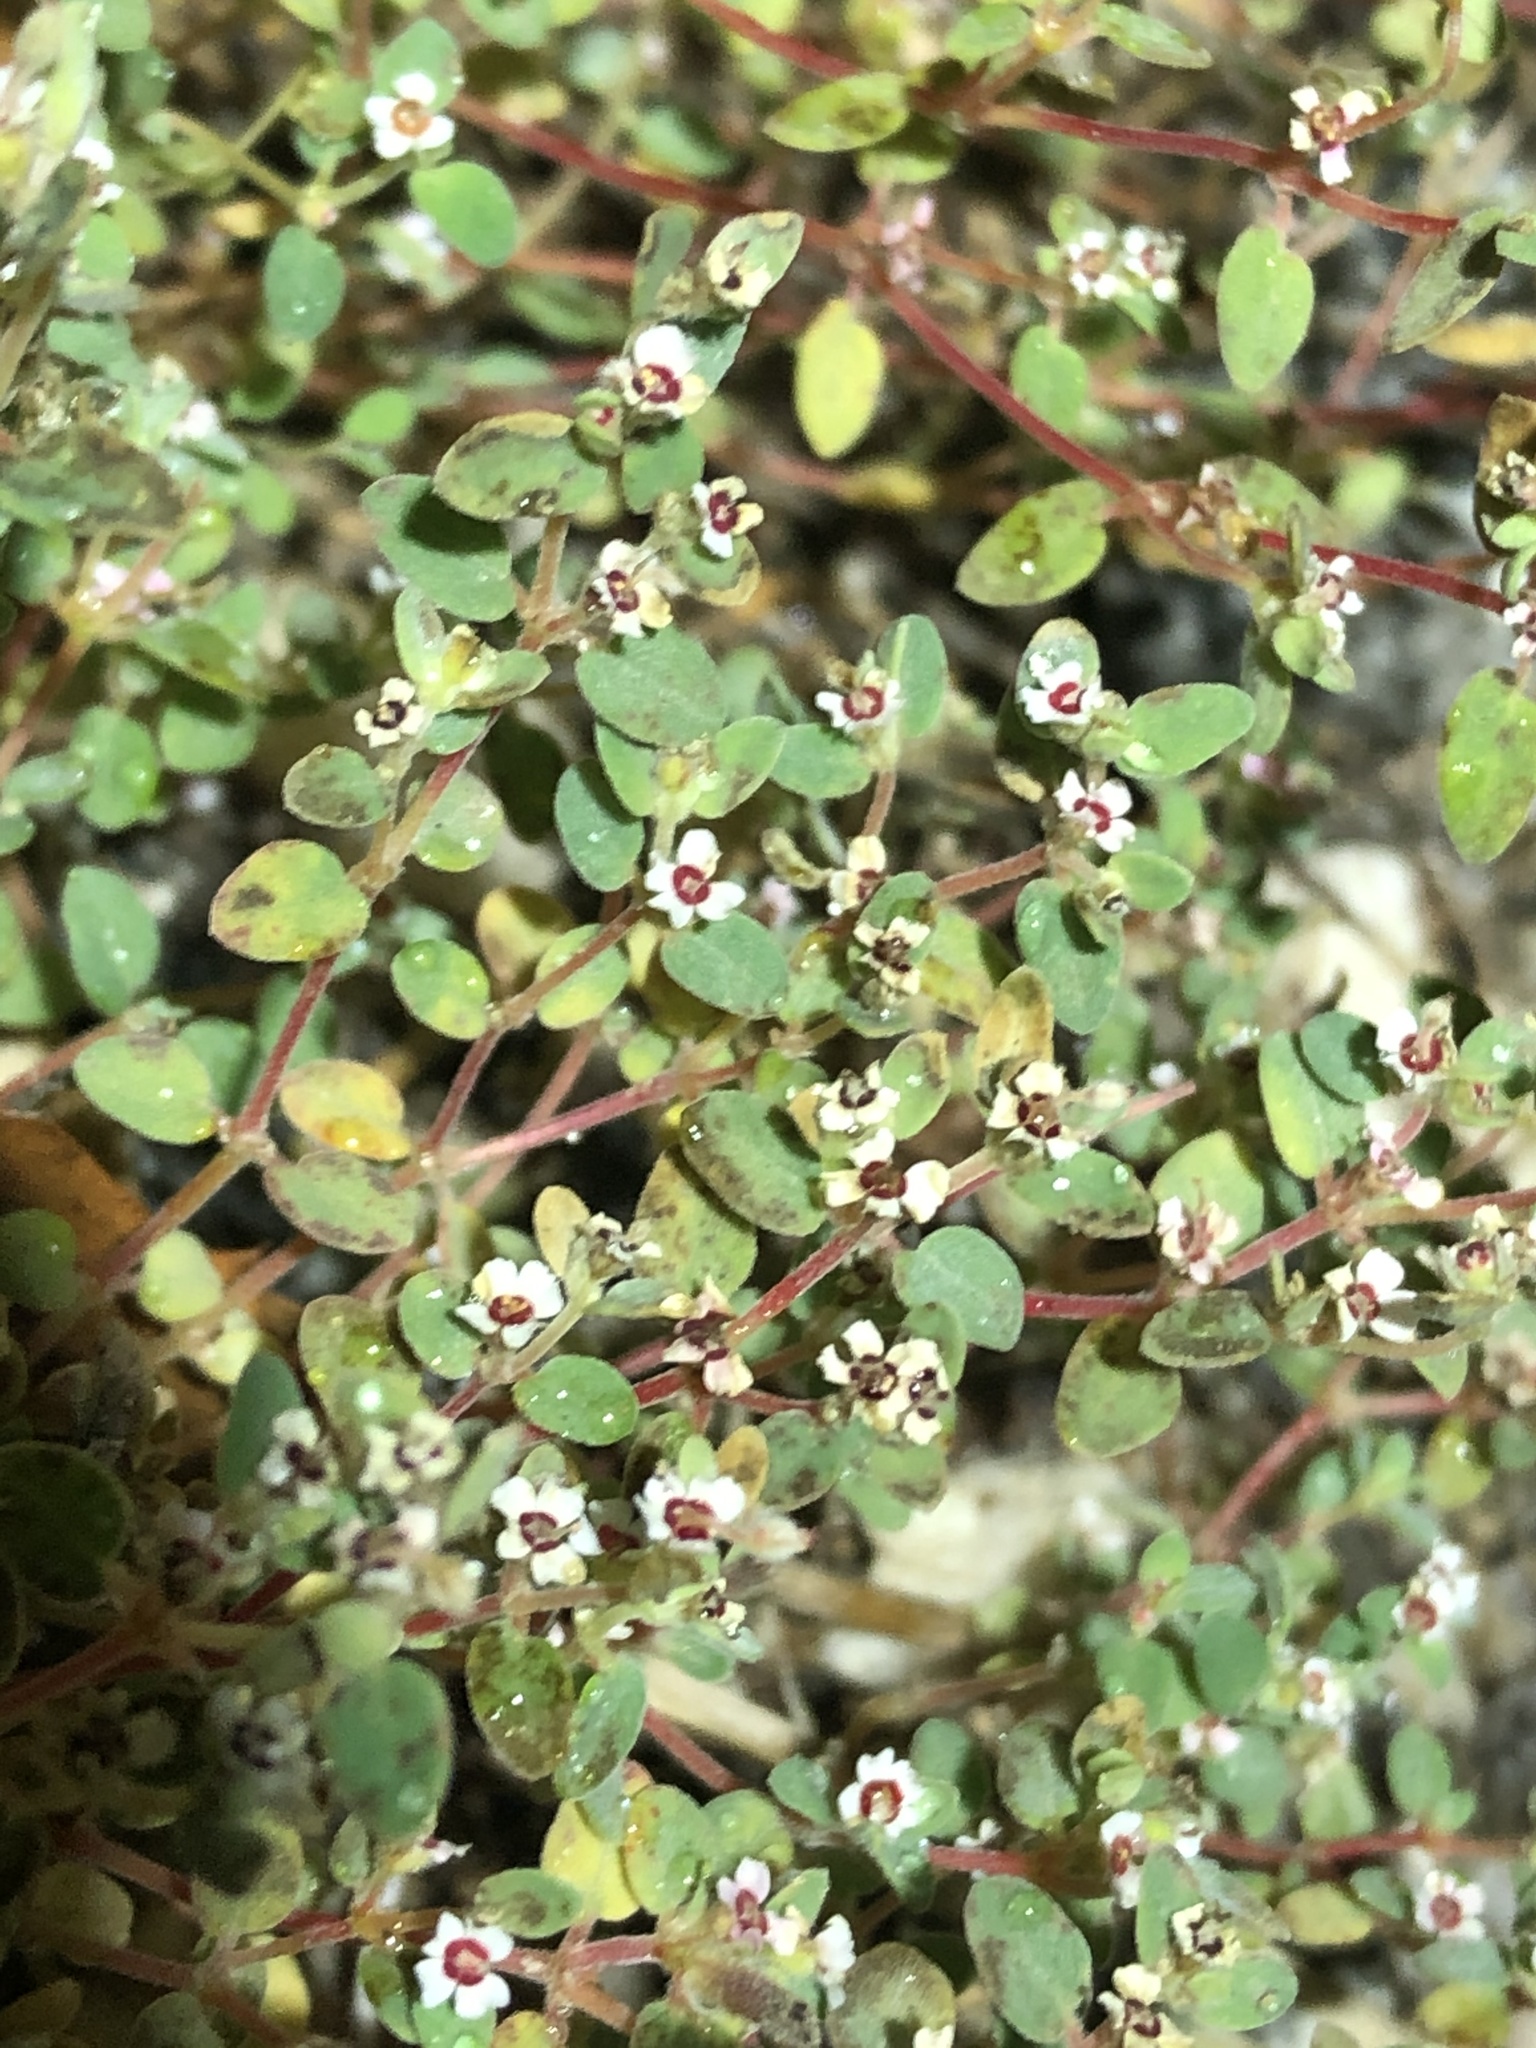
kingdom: Plantae
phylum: Tracheophyta
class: Magnoliopsida
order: Malpighiales
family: Euphorbiaceae
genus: Euphorbia
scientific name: Euphorbia melanadenia
